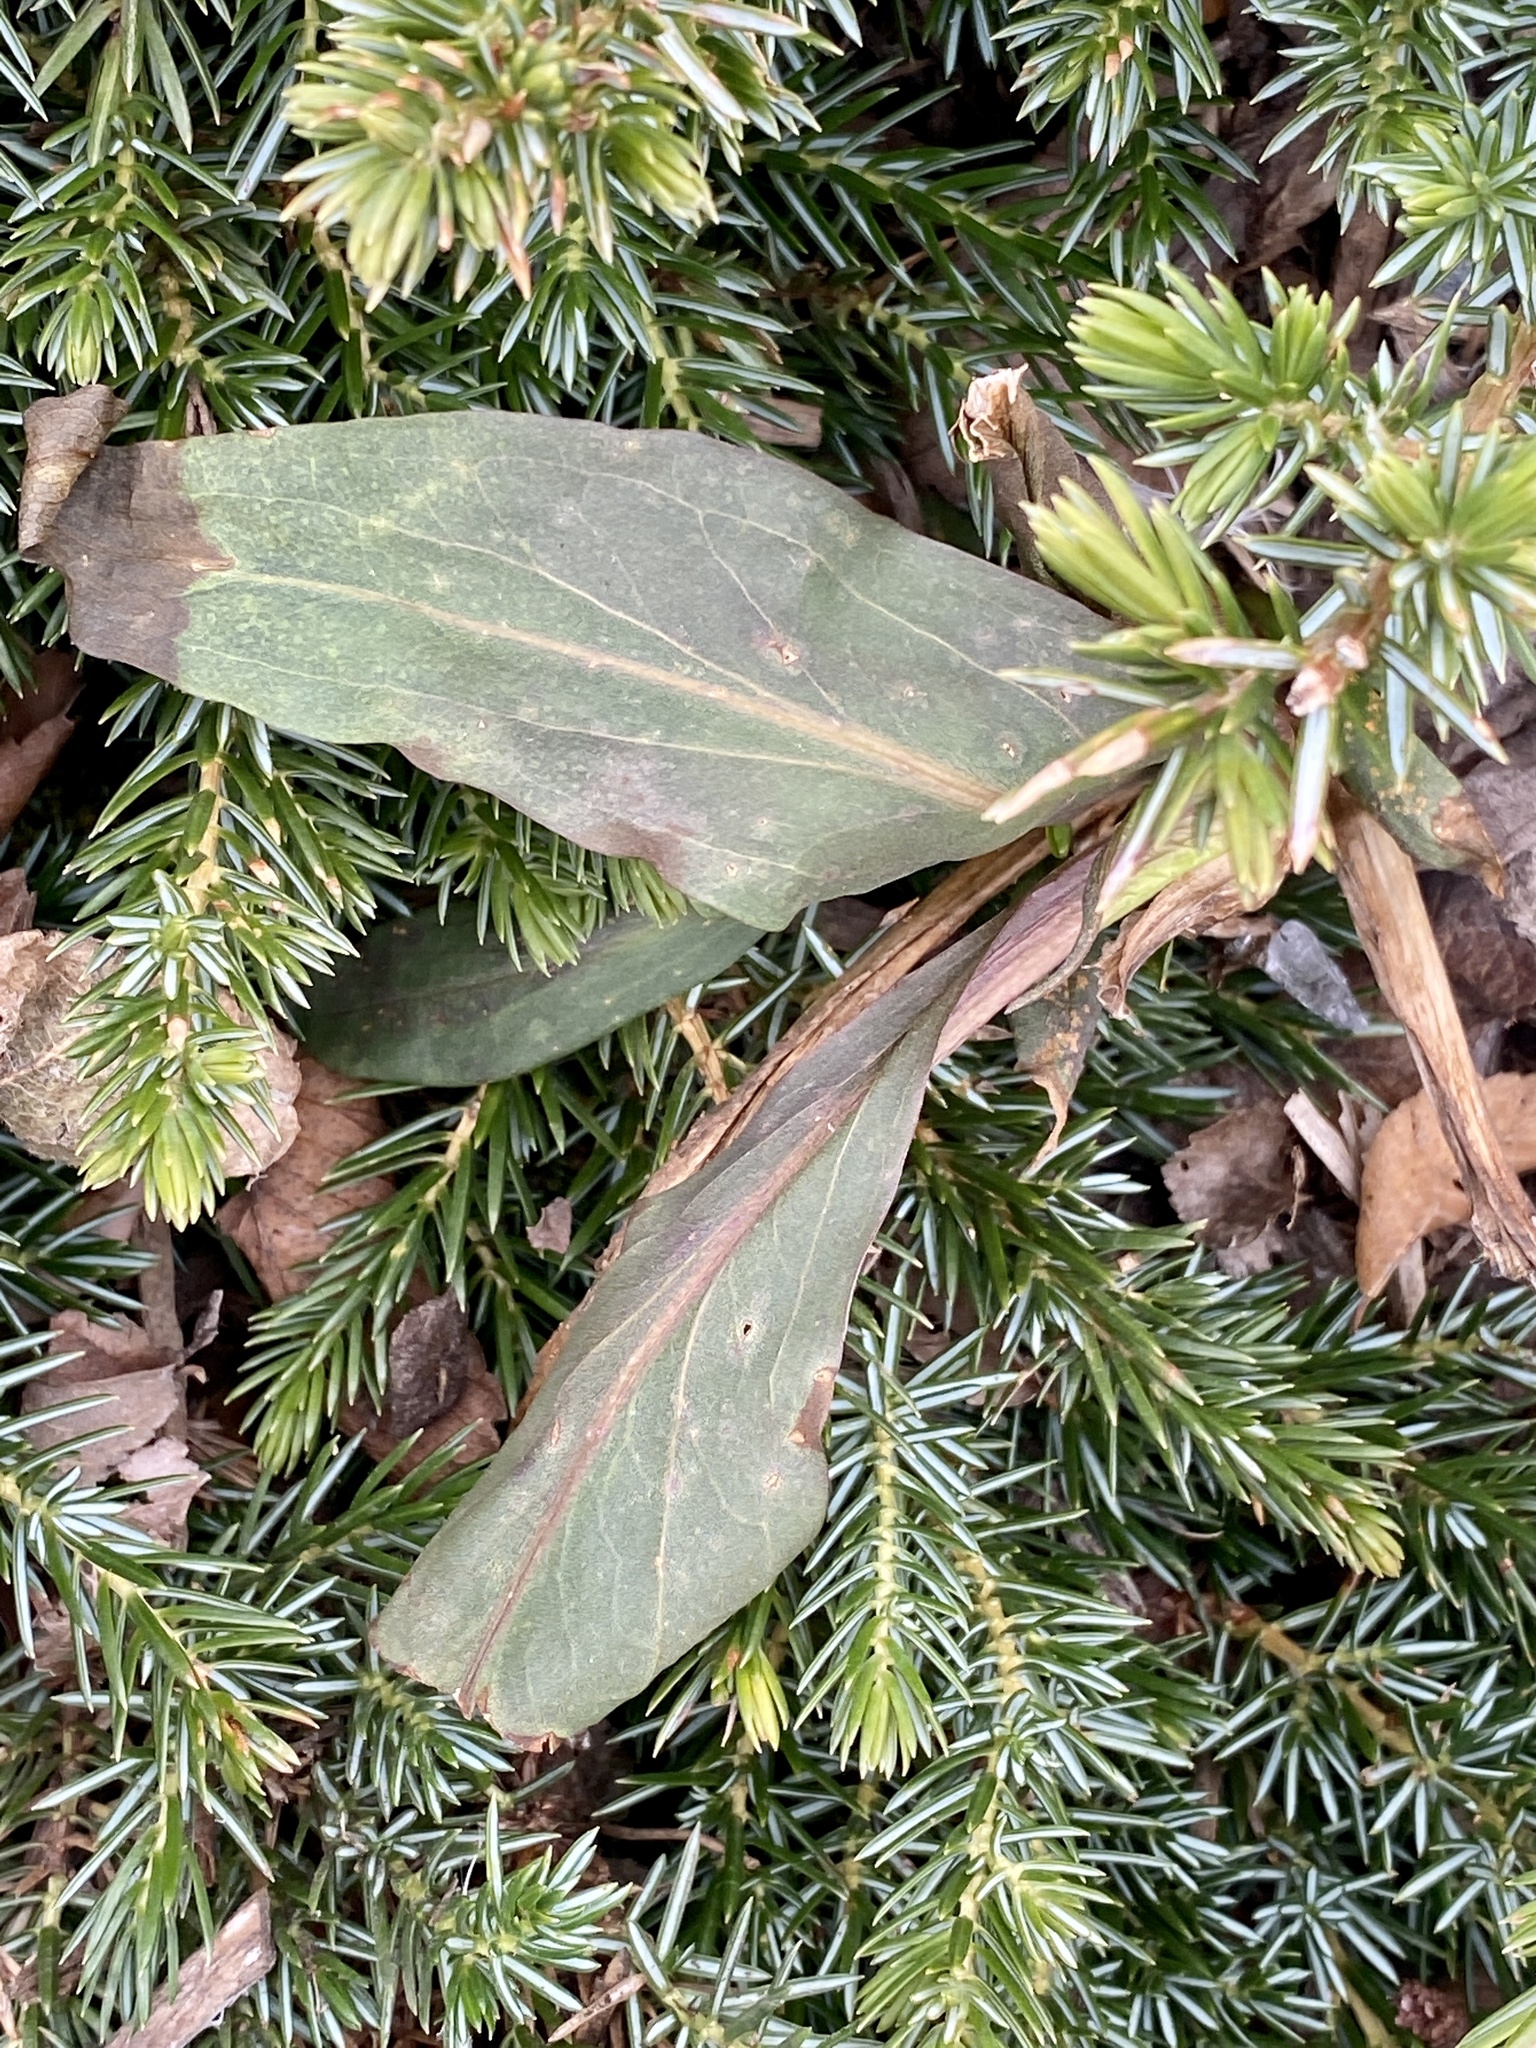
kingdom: Plantae
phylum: Tracheophyta
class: Magnoliopsida
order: Asterales
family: Asteraceae
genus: Solidago
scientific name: Solidago sempervirens
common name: Salt-marsh goldenrod
